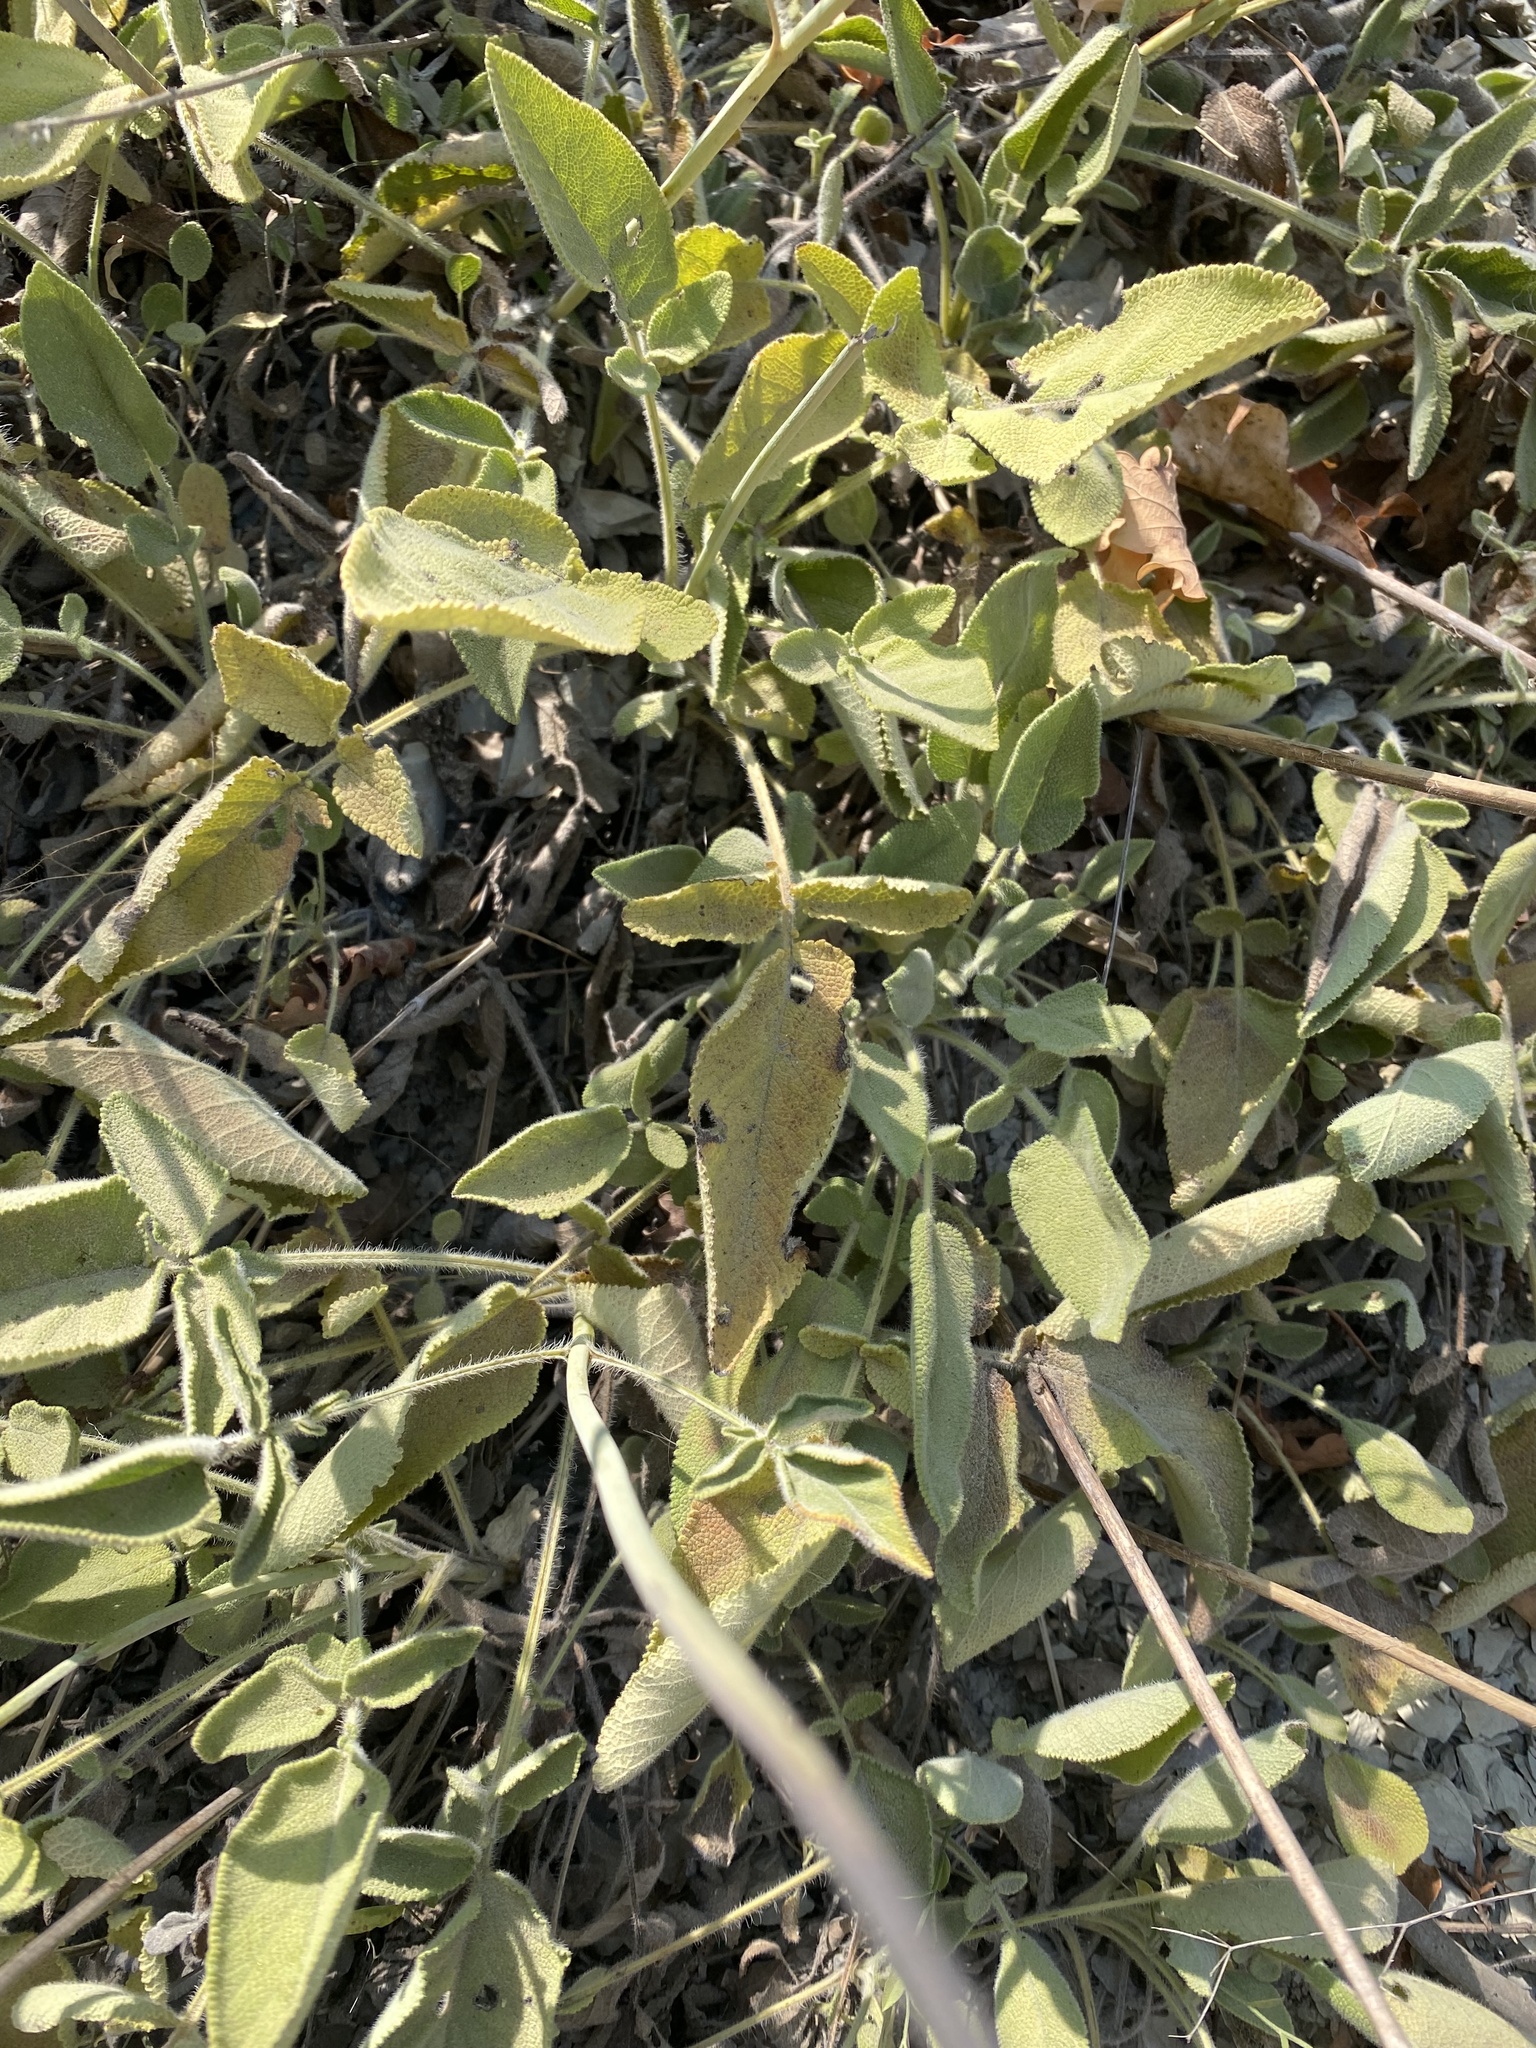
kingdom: Plantae
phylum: Tracheophyta
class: Magnoliopsida
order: Lamiales
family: Lamiaceae
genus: Salvia
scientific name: Salvia ringens
